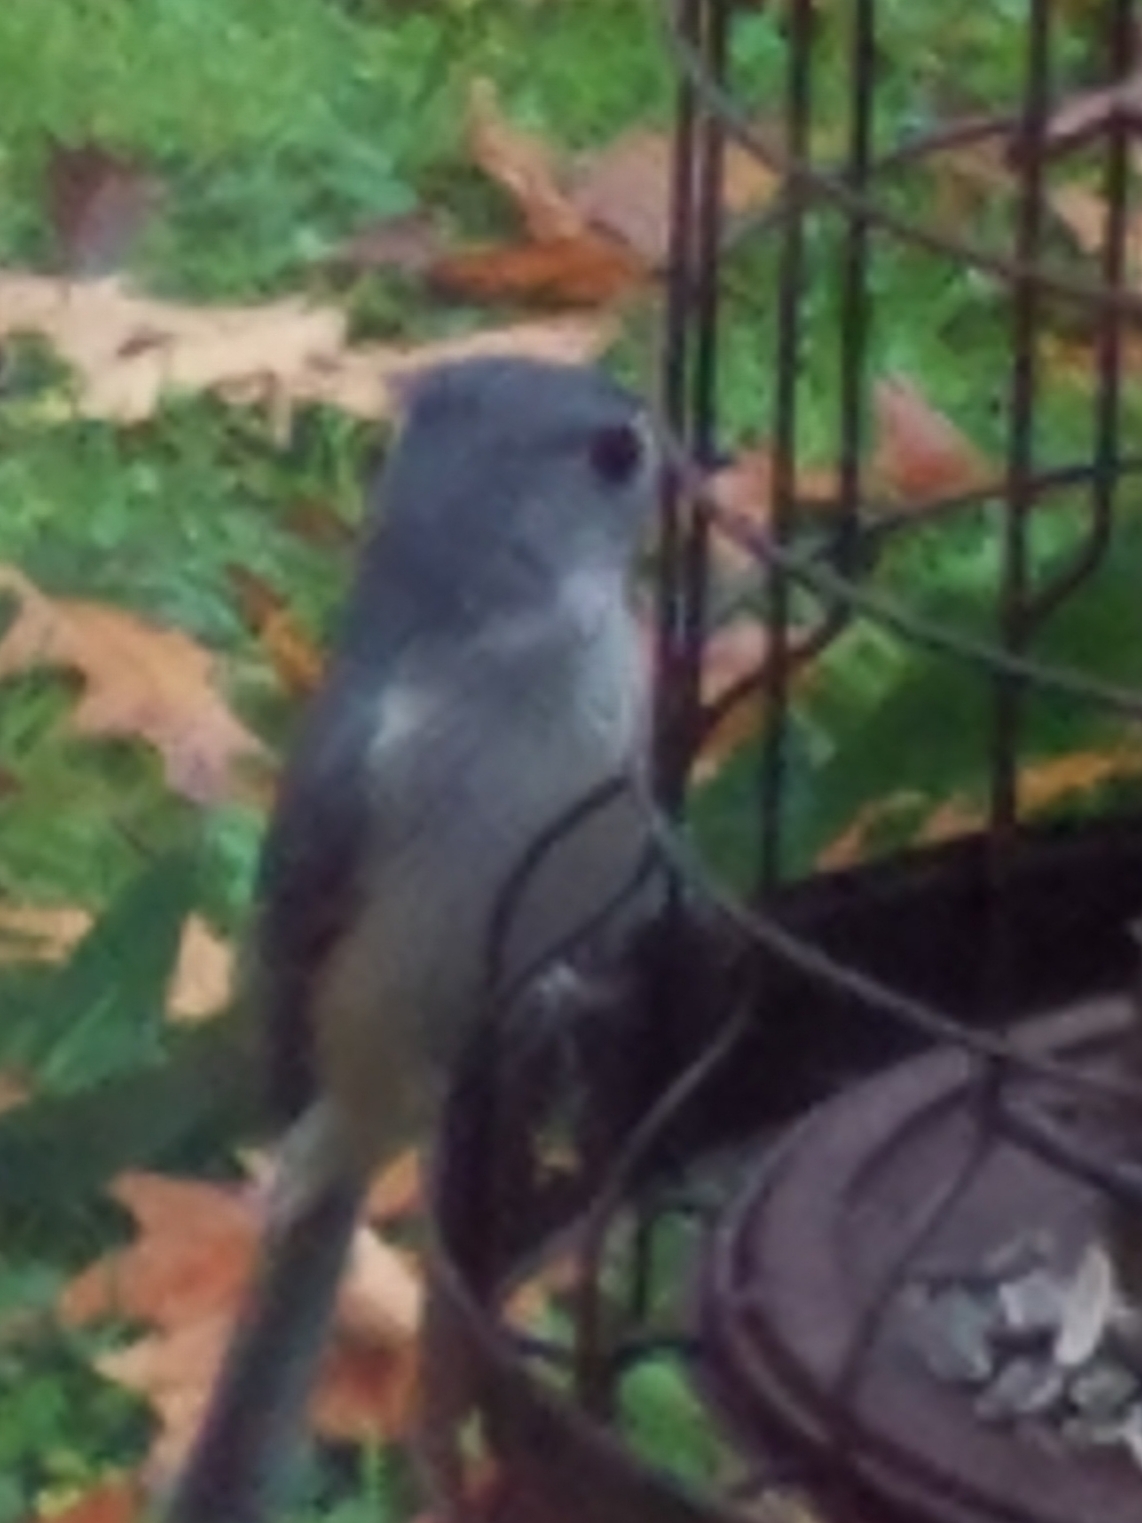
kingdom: Animalia
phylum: Chordata
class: Aves
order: Passeriformes
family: Paridae
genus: Baeolophus
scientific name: Baeolophus bicolor
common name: Tufted titmouse
